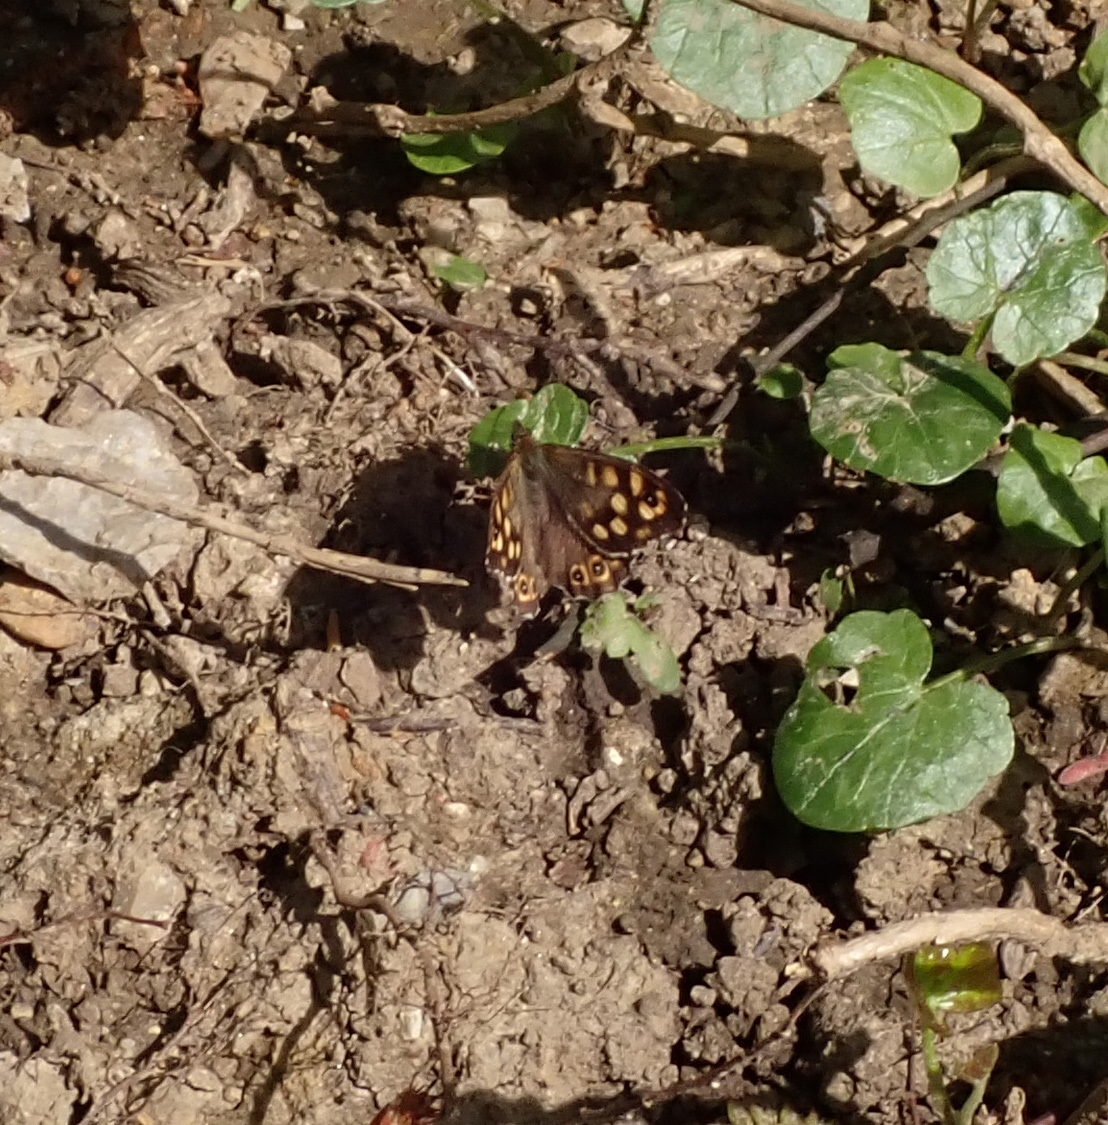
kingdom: Animalia
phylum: Arthropoda
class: Insecta
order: Lepidoptera
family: Nymphalidae
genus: Pararge
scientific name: Pararge aegeria
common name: Speckled wood
